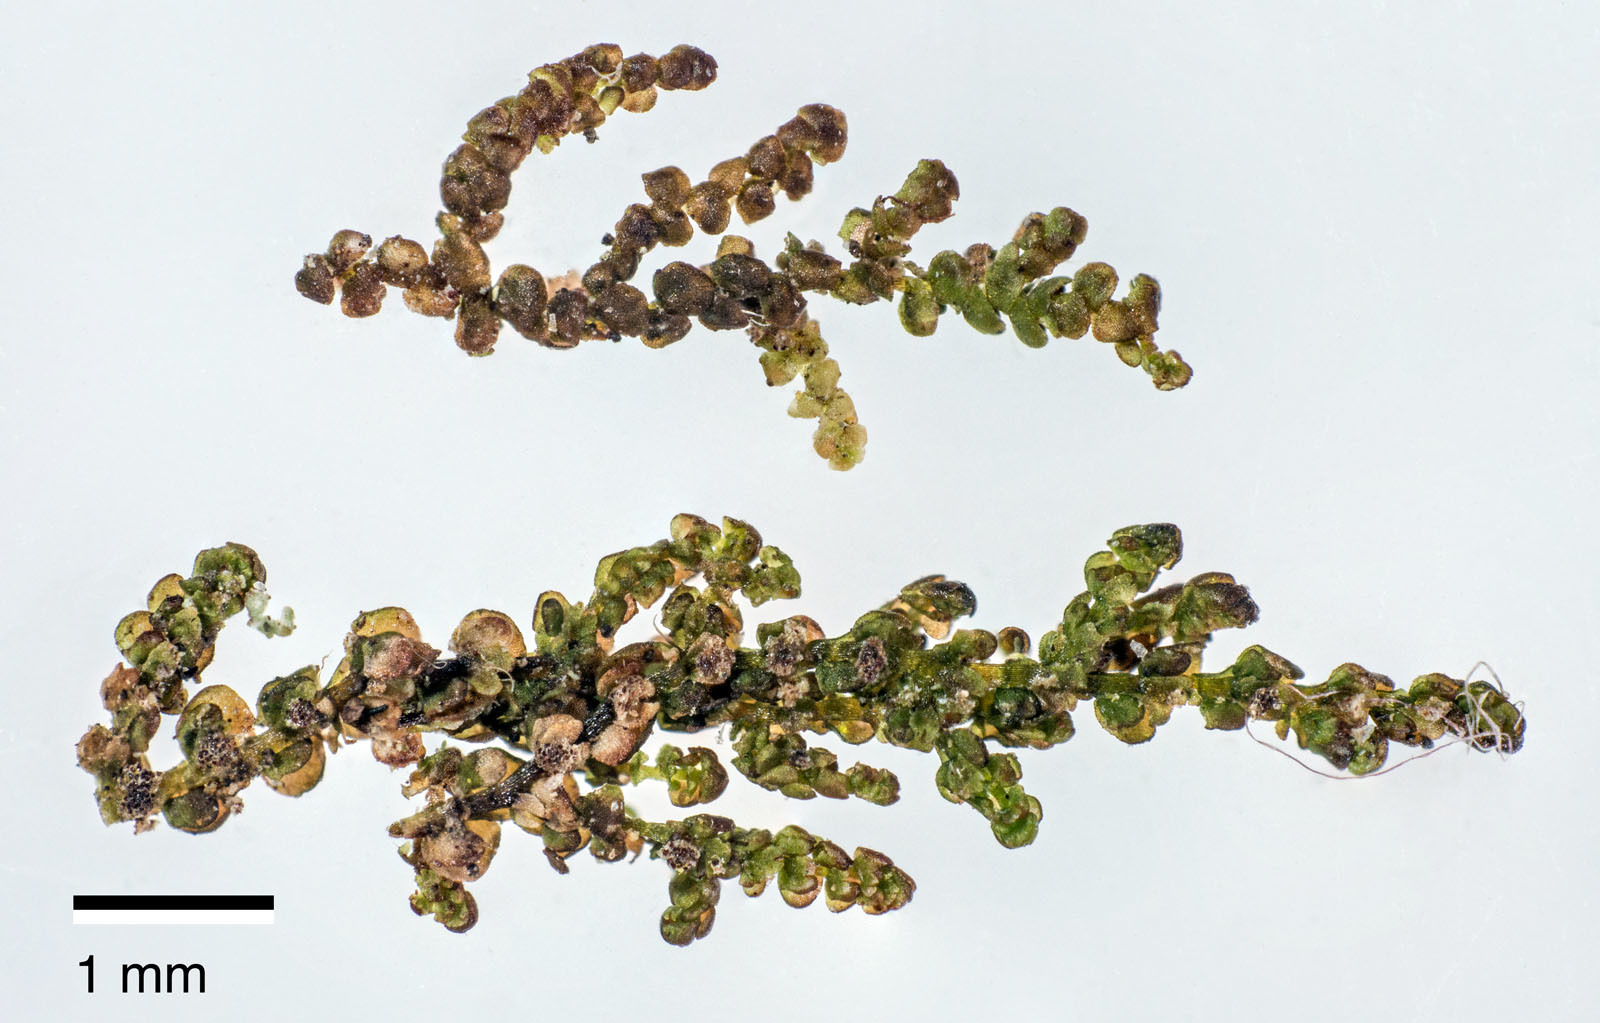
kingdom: Plantae
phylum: Marchantiophyta
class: Jungermanniopsida
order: Porellales
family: Frullaniaceae
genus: Frullania
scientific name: Frullania fugax
